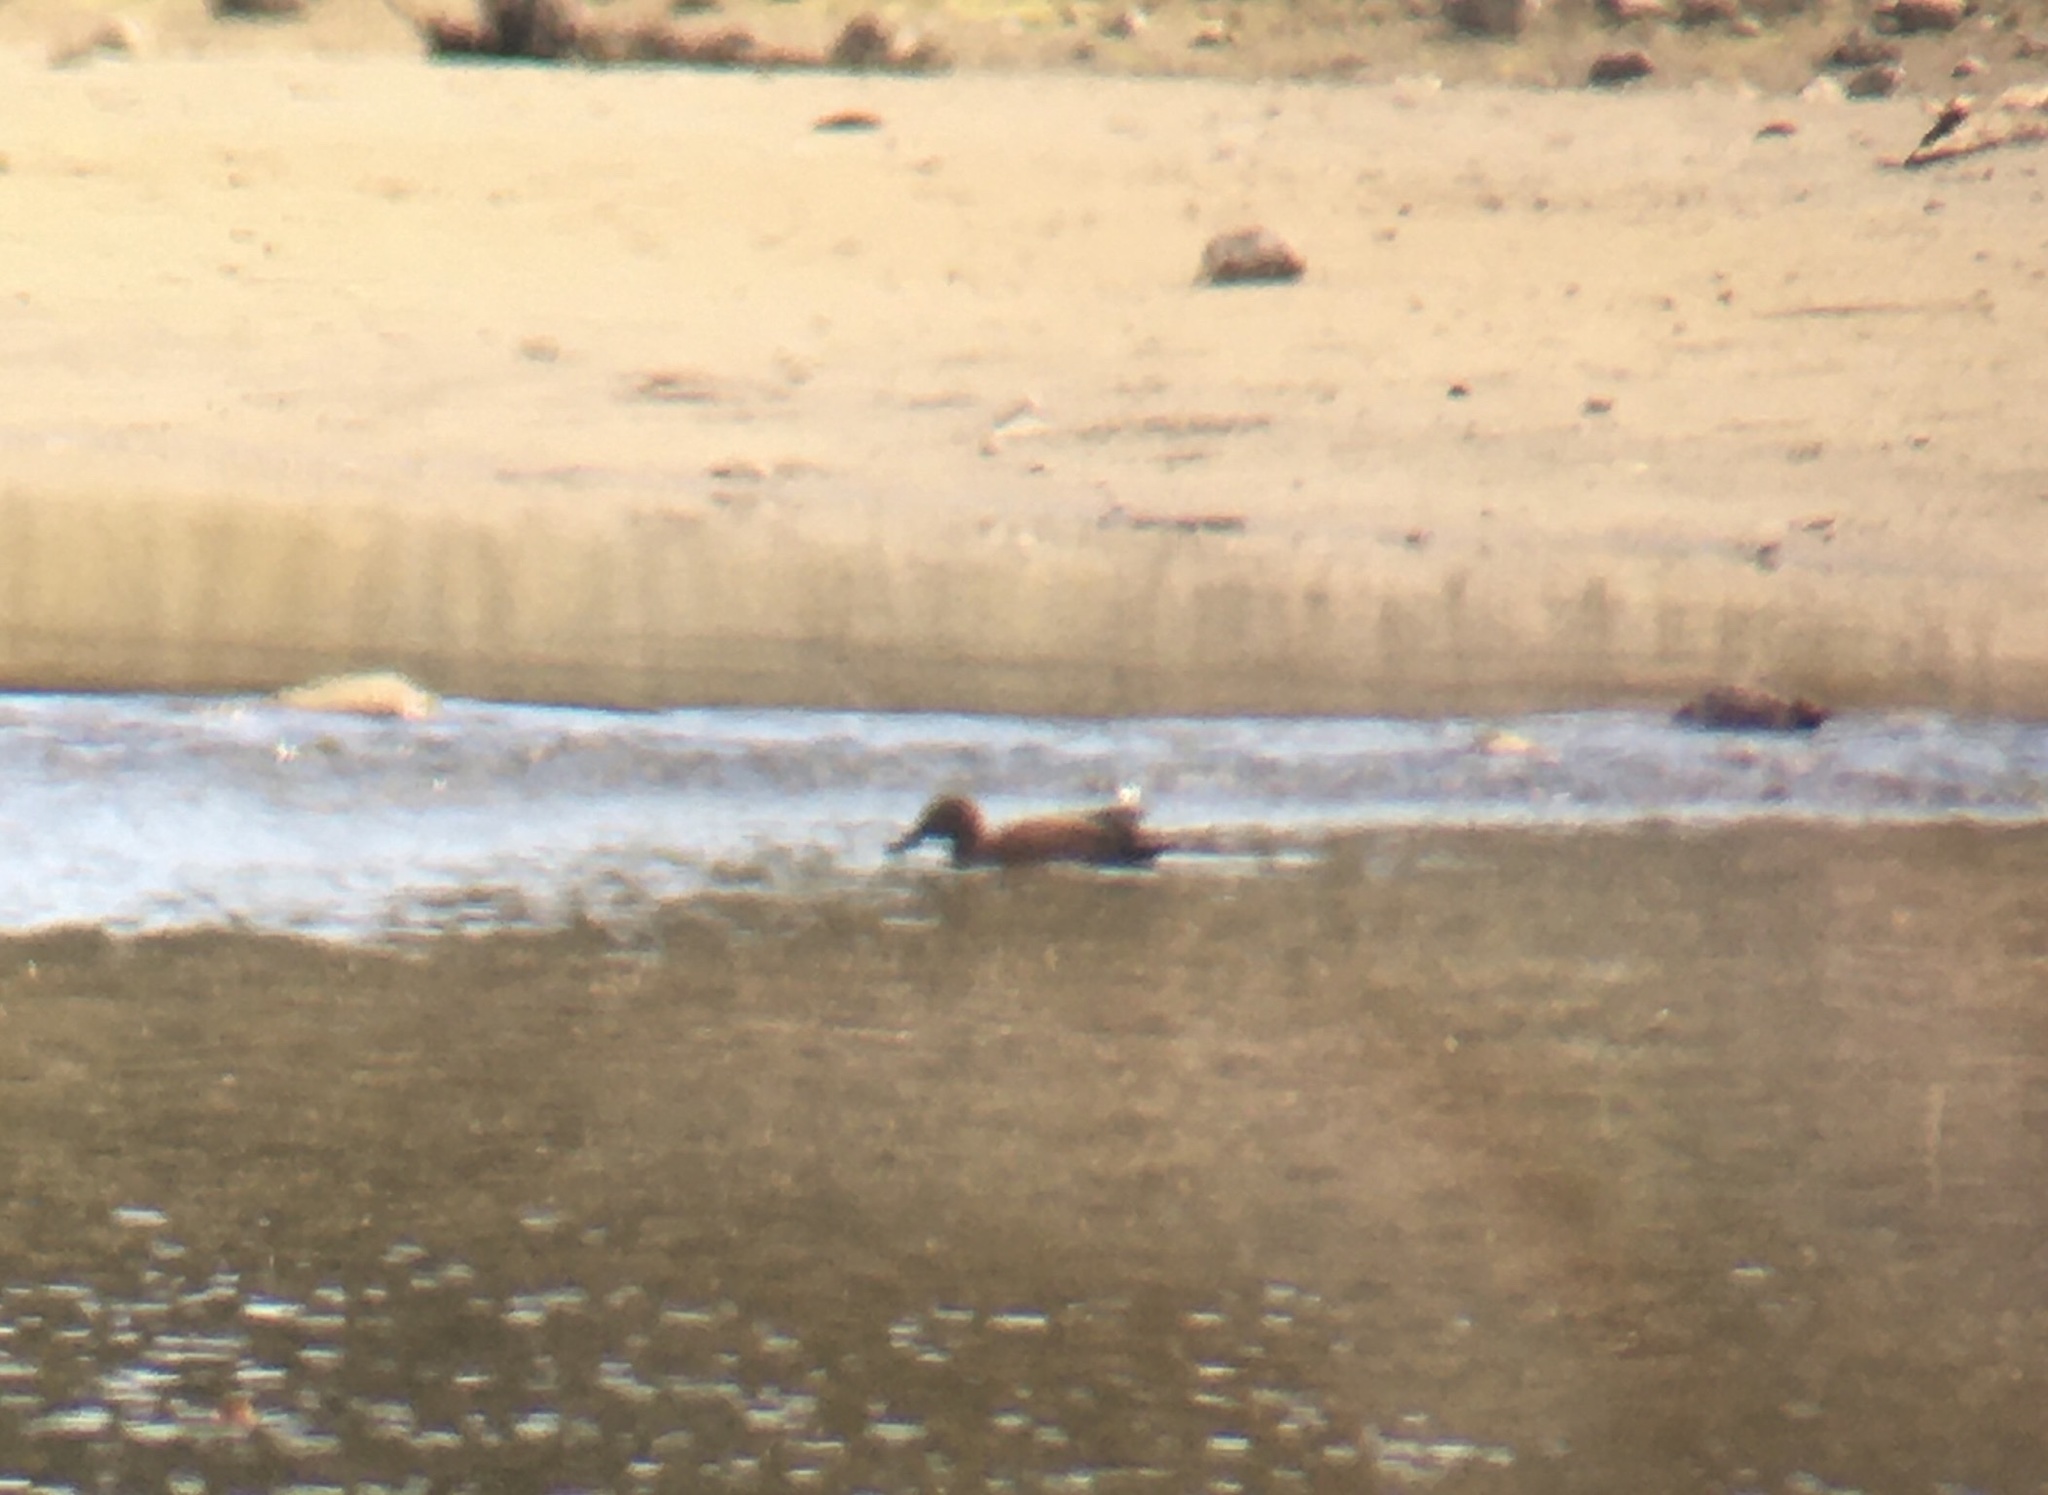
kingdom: Animalia
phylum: Chordata
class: Aves
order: Anseriformes
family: Anatidae
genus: Spatula
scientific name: Spatula cyanoptera
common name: Cinnamon teal
